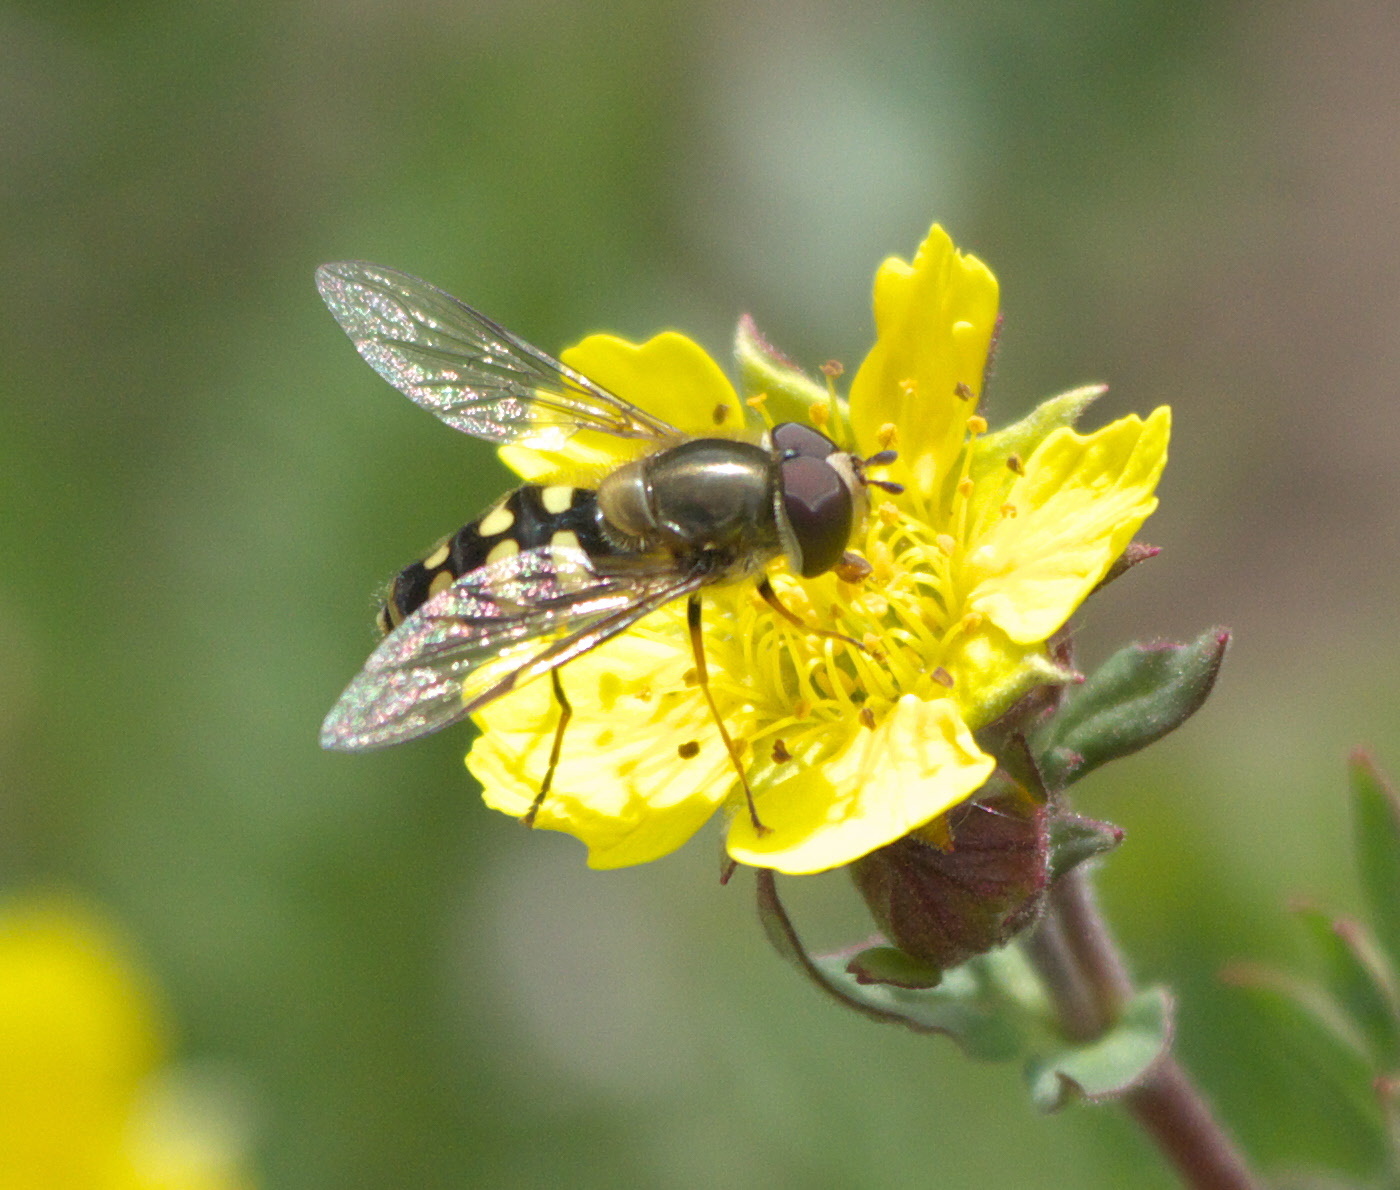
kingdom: Animalia
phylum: Arthropoda
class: Insecta
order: Diptera
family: Syrphidae
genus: Lapposyrphus
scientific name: Lapposyrphus lapponicus
